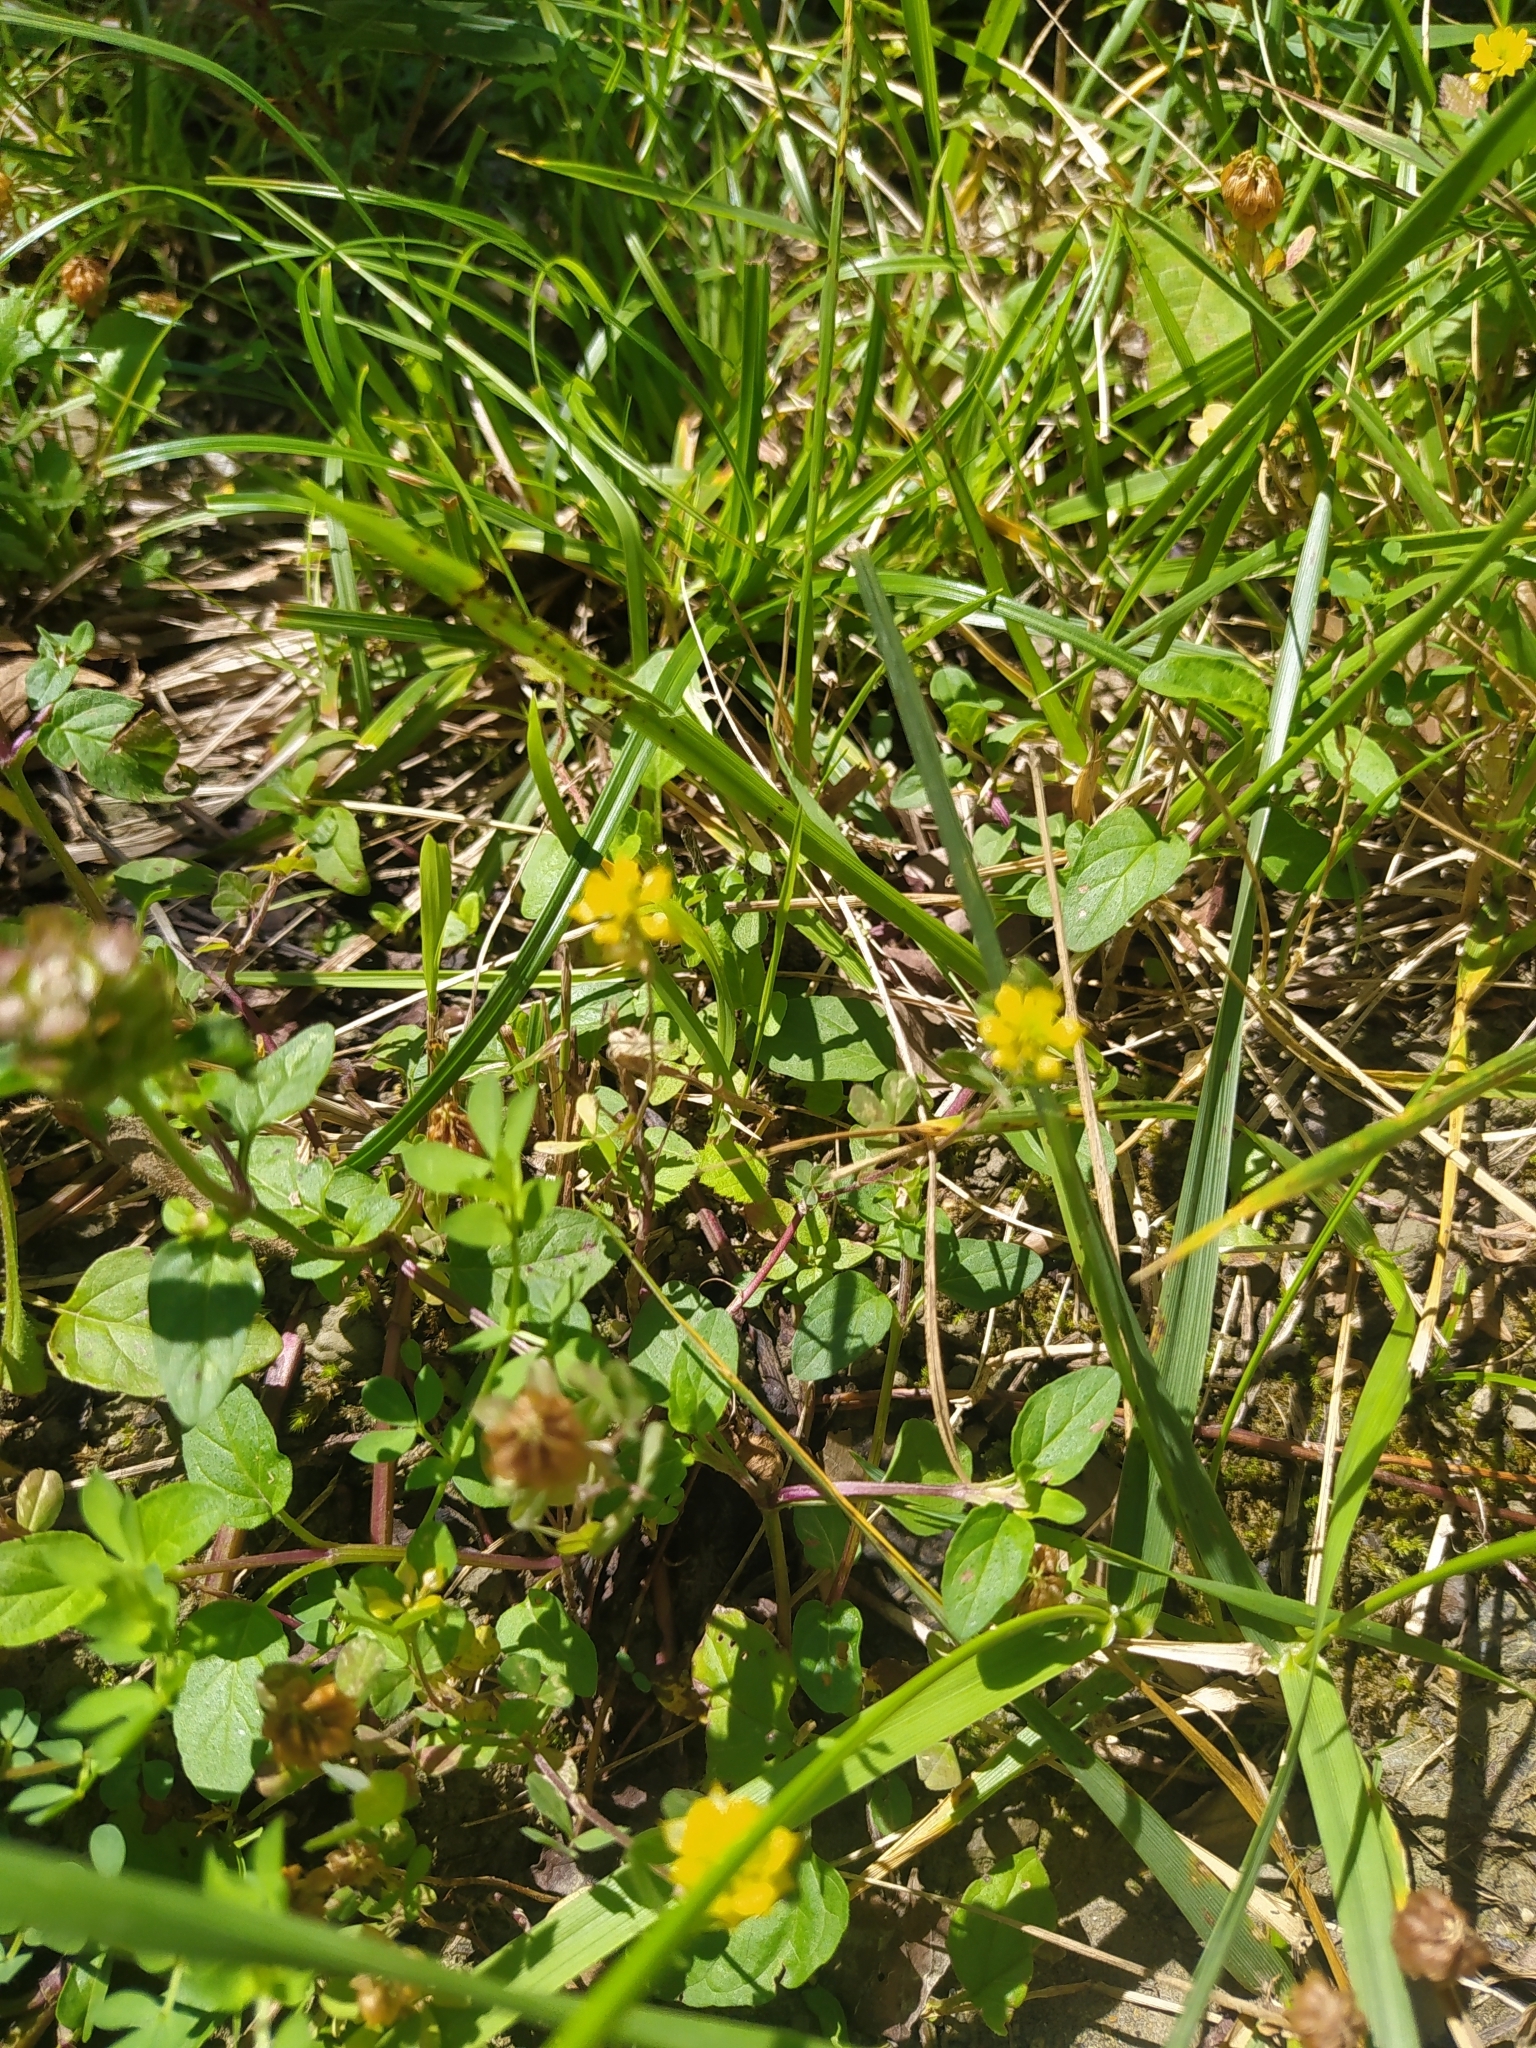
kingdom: Plantae
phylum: Tracheophyta
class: Magnoliopsida
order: Fabales
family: Fabaceae
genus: Trifolium
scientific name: Trifolium campestre
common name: Field clover
